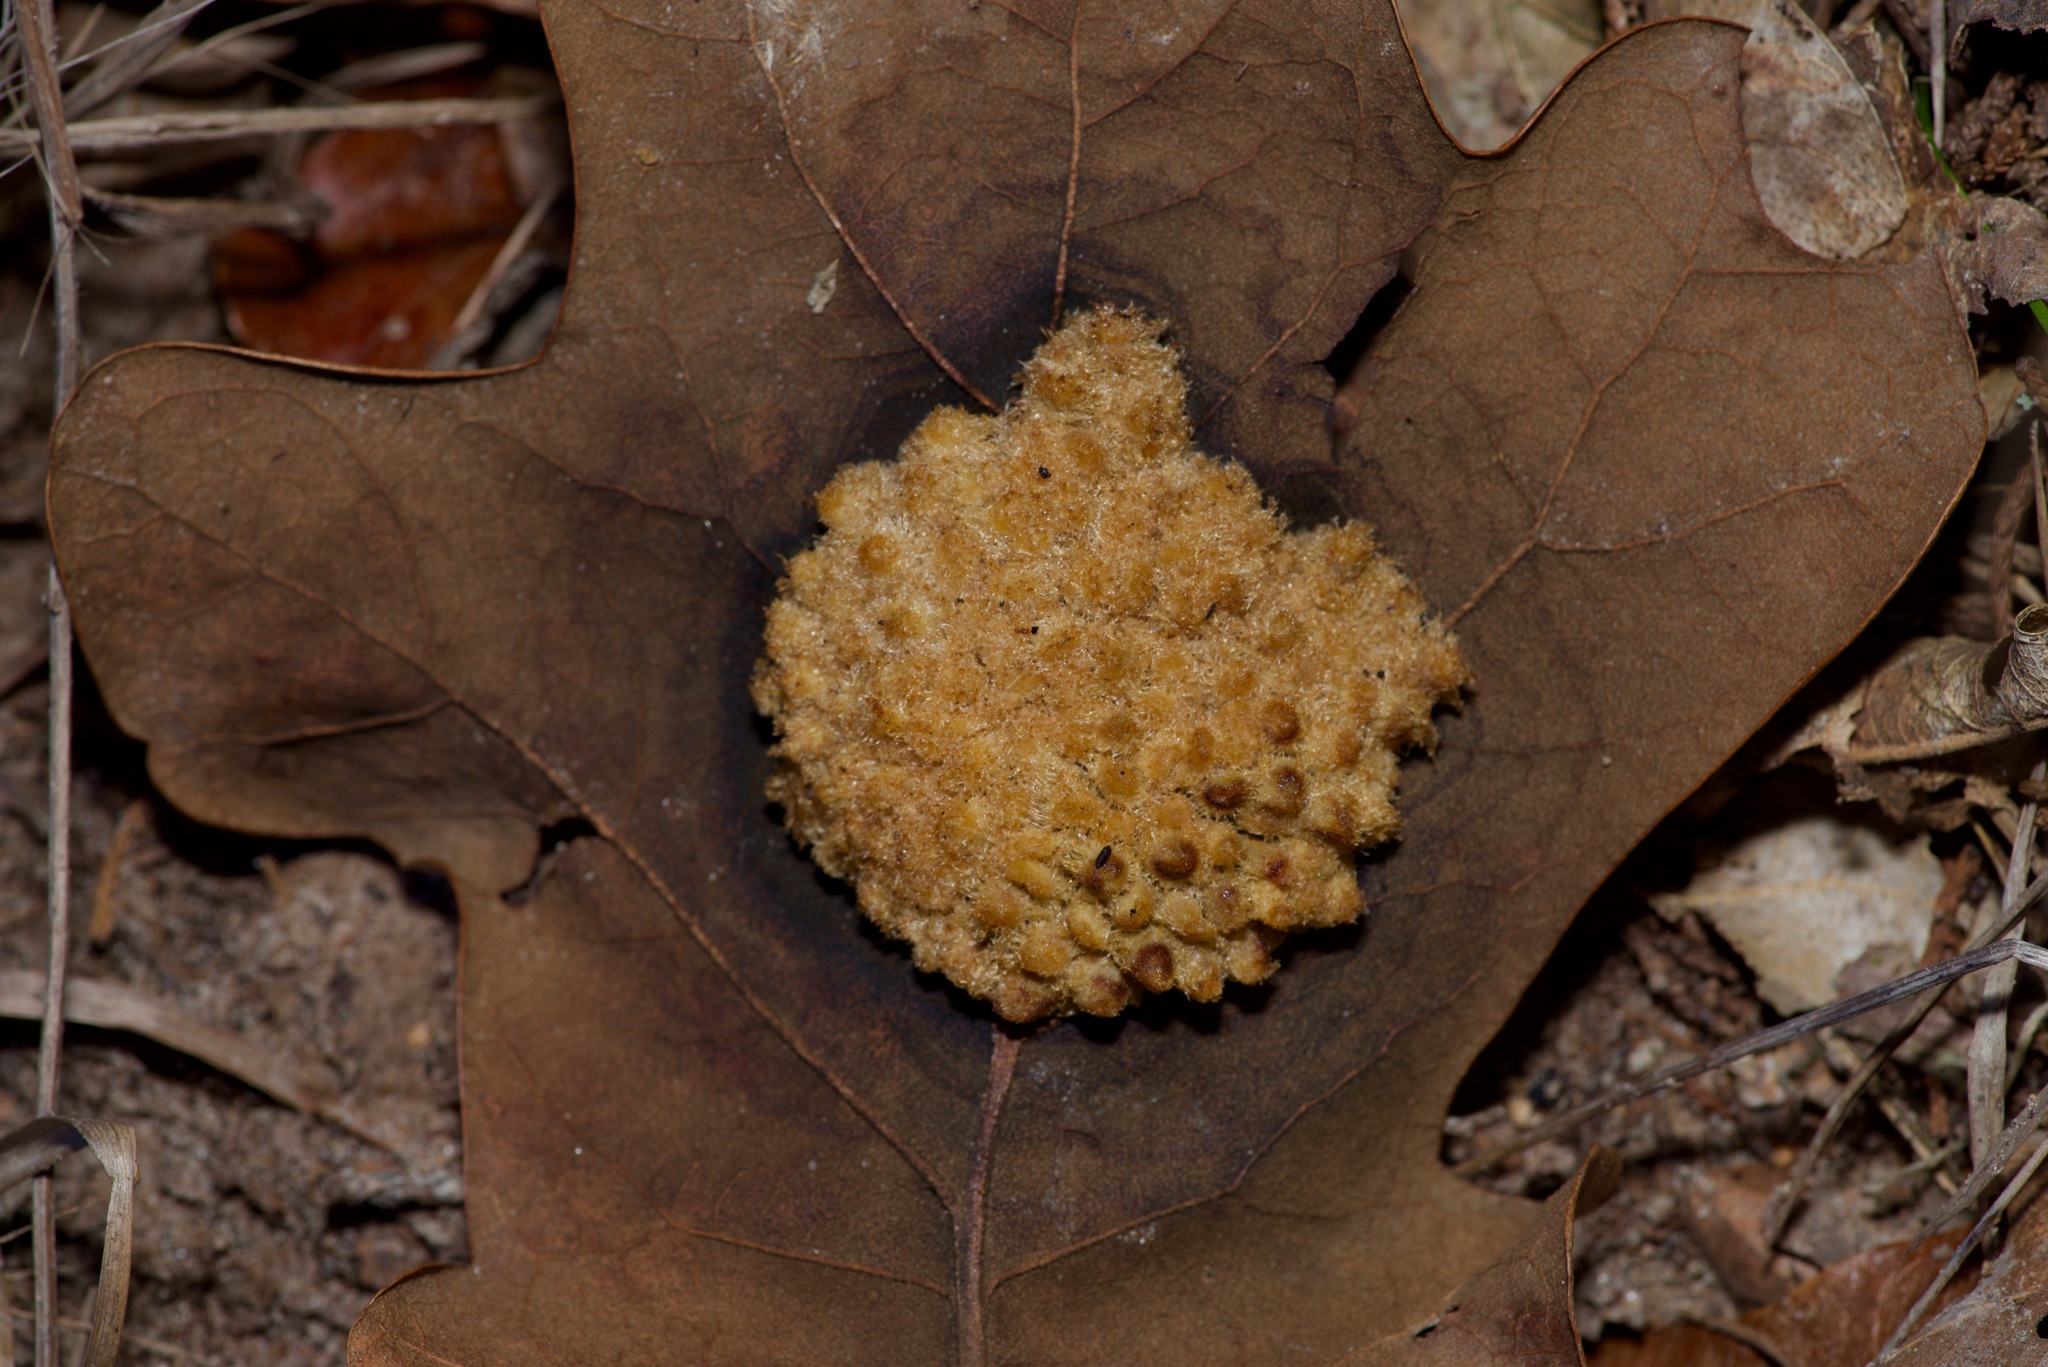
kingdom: Animalia
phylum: Arthropoda
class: Insecta
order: Hymenoptera
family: Cynipidae
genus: Andricus
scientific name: Andricus
